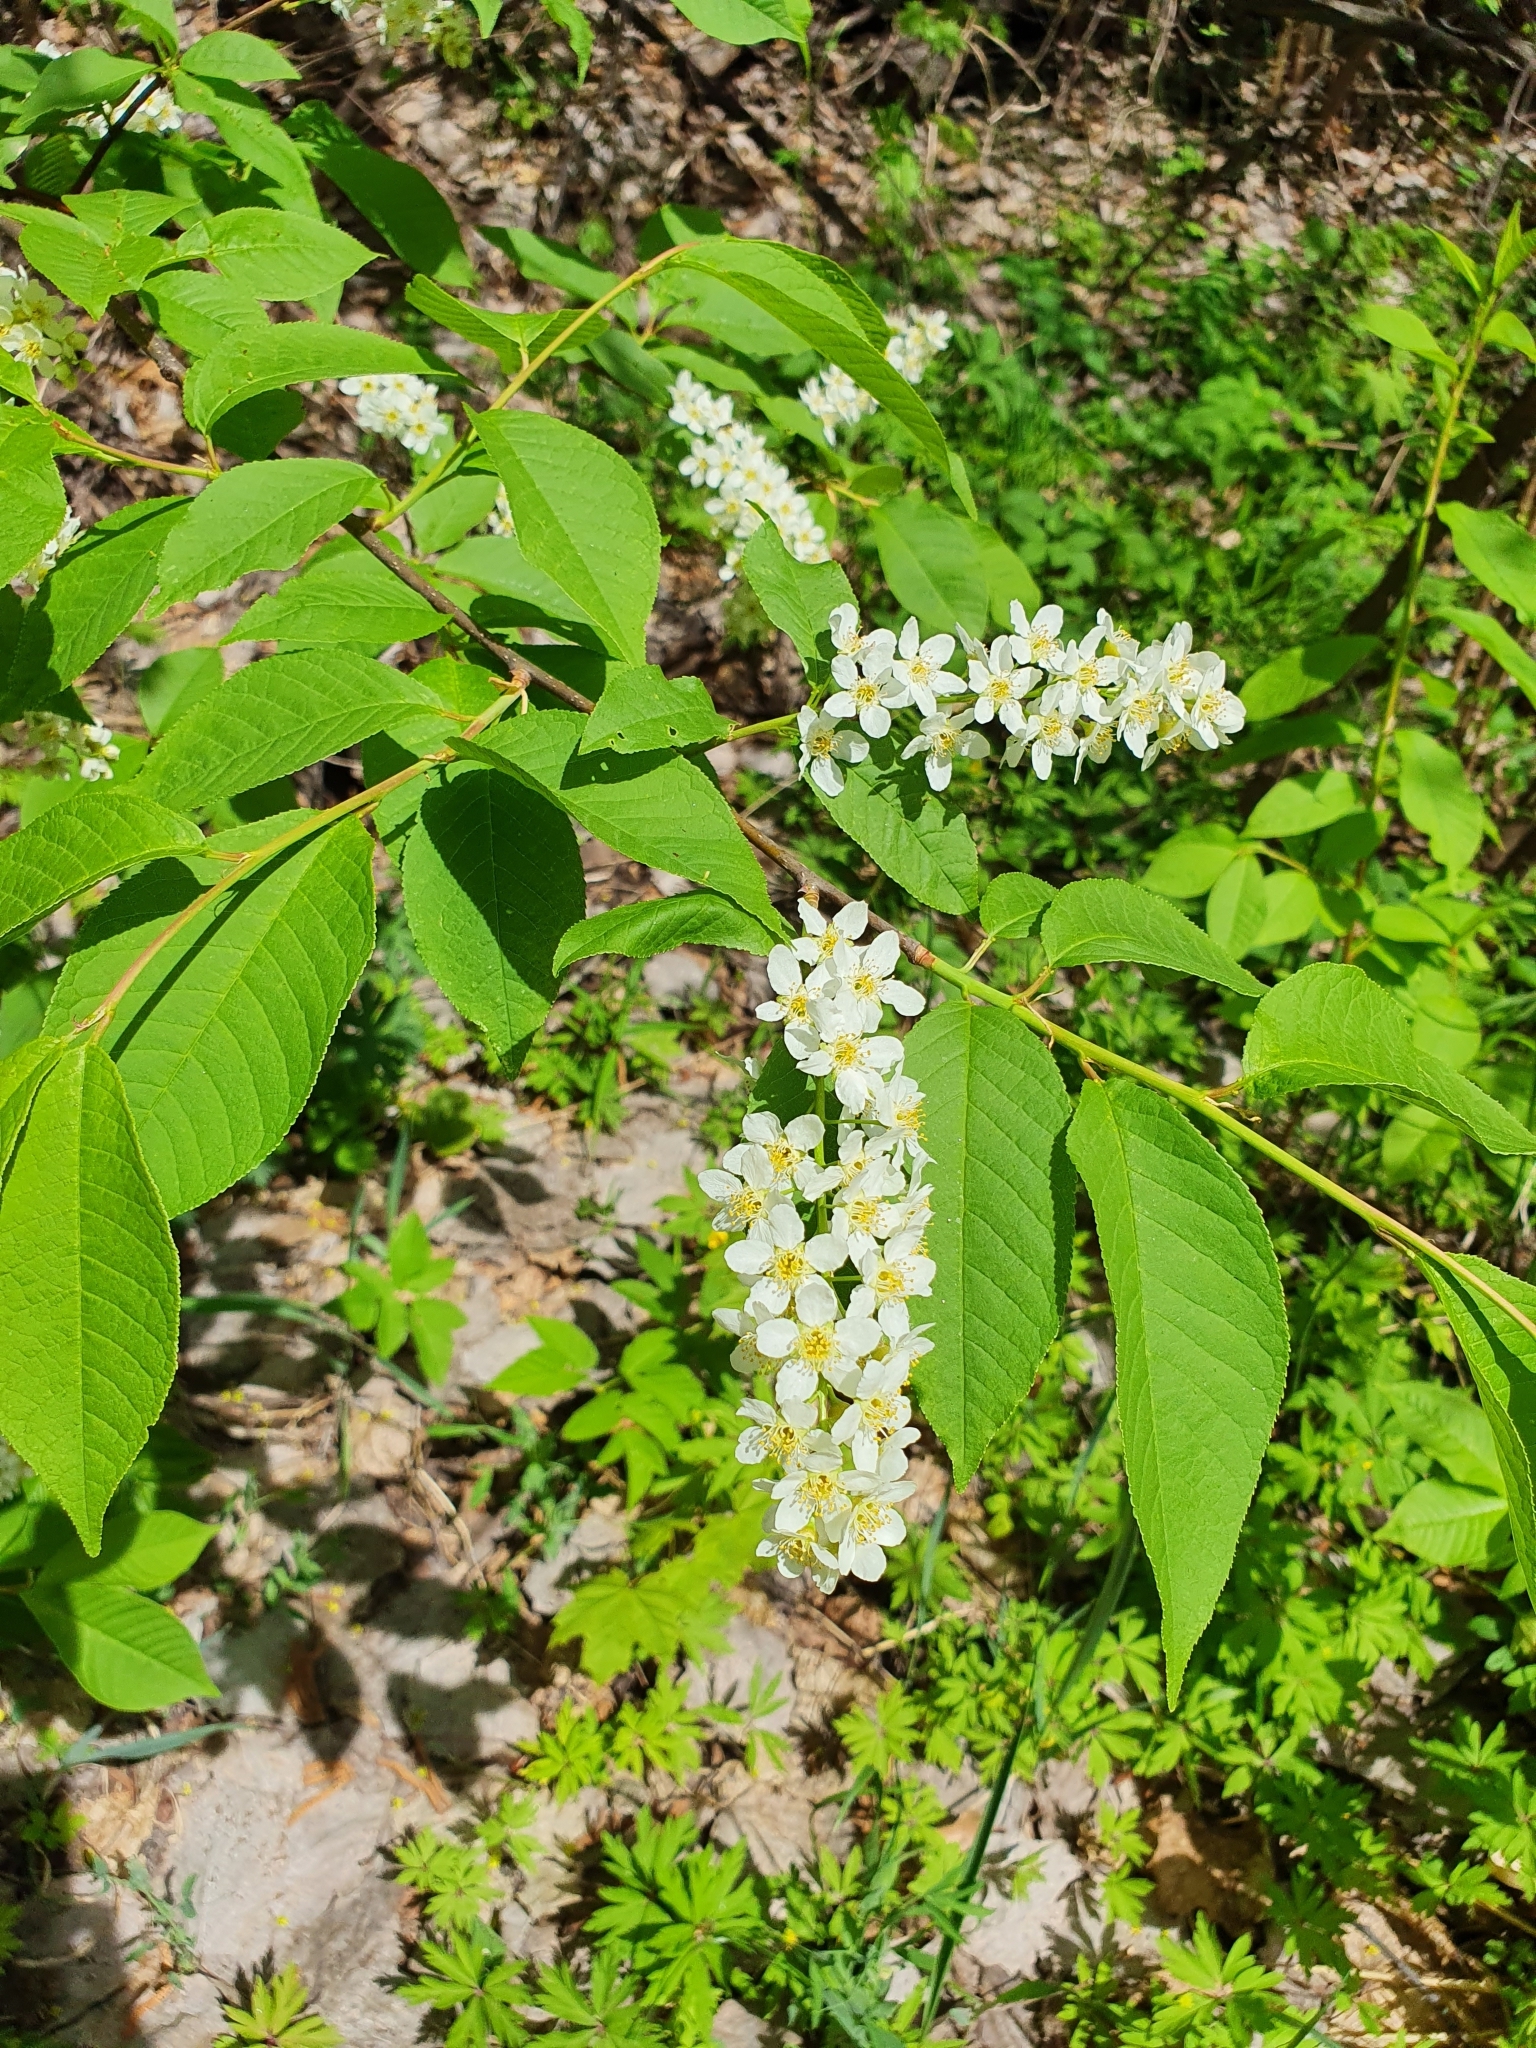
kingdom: Plantae
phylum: Tracheophyta
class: Magnoliopsida
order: Rosales
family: Rosaceae
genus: Prunus
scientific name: Prunus padus
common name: Bird cherry
